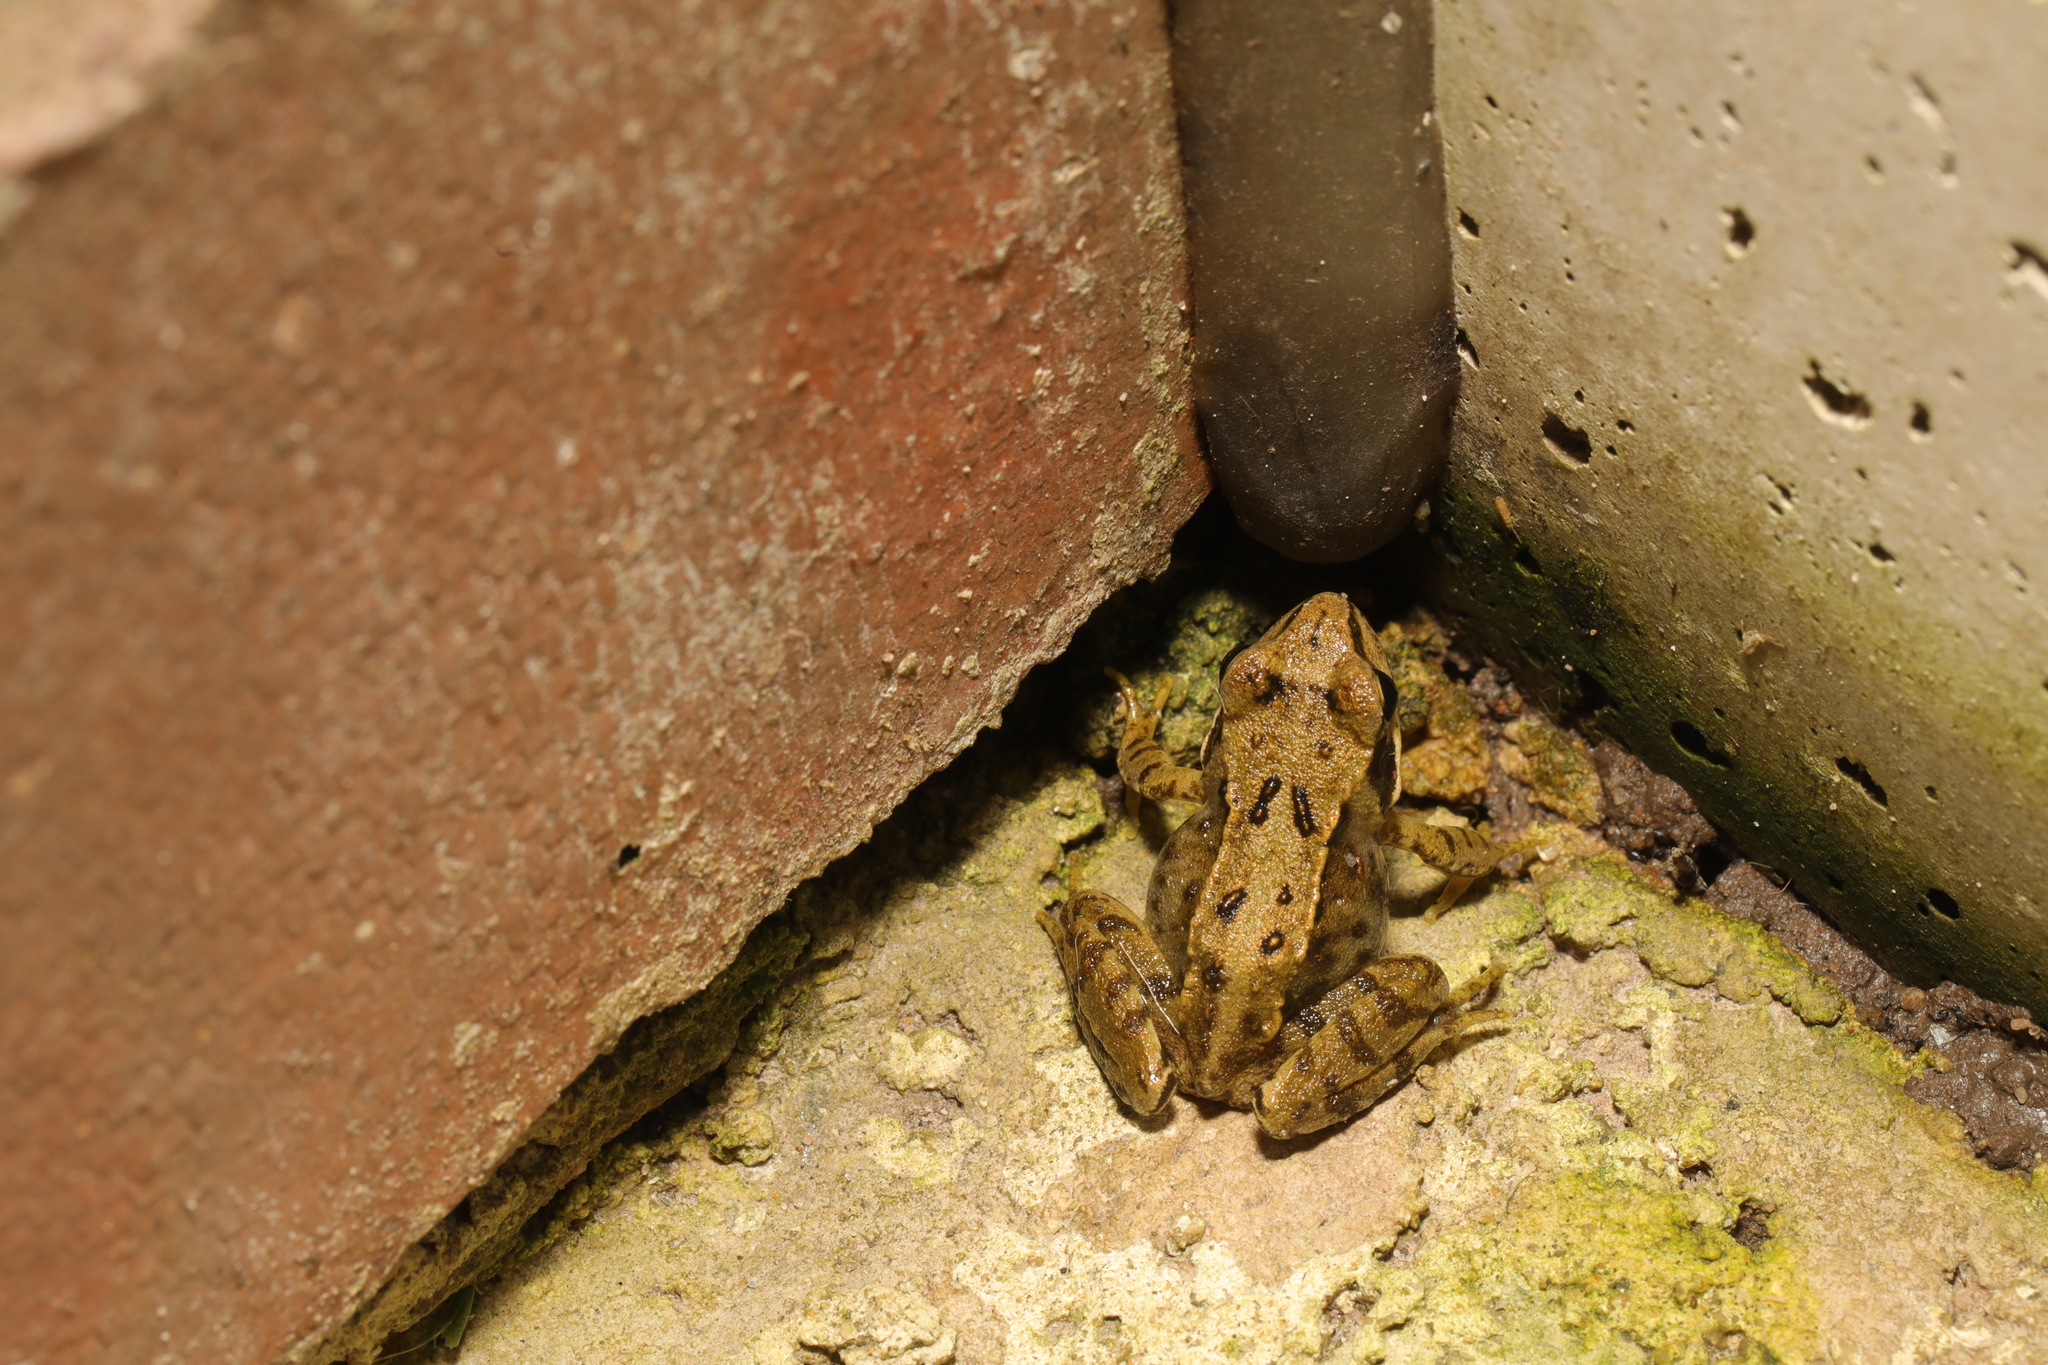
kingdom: Animalia
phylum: Chordata
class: Amphibia
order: Anura
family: Ranidae
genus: Rana
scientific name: Rana temporaria
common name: Common frog
